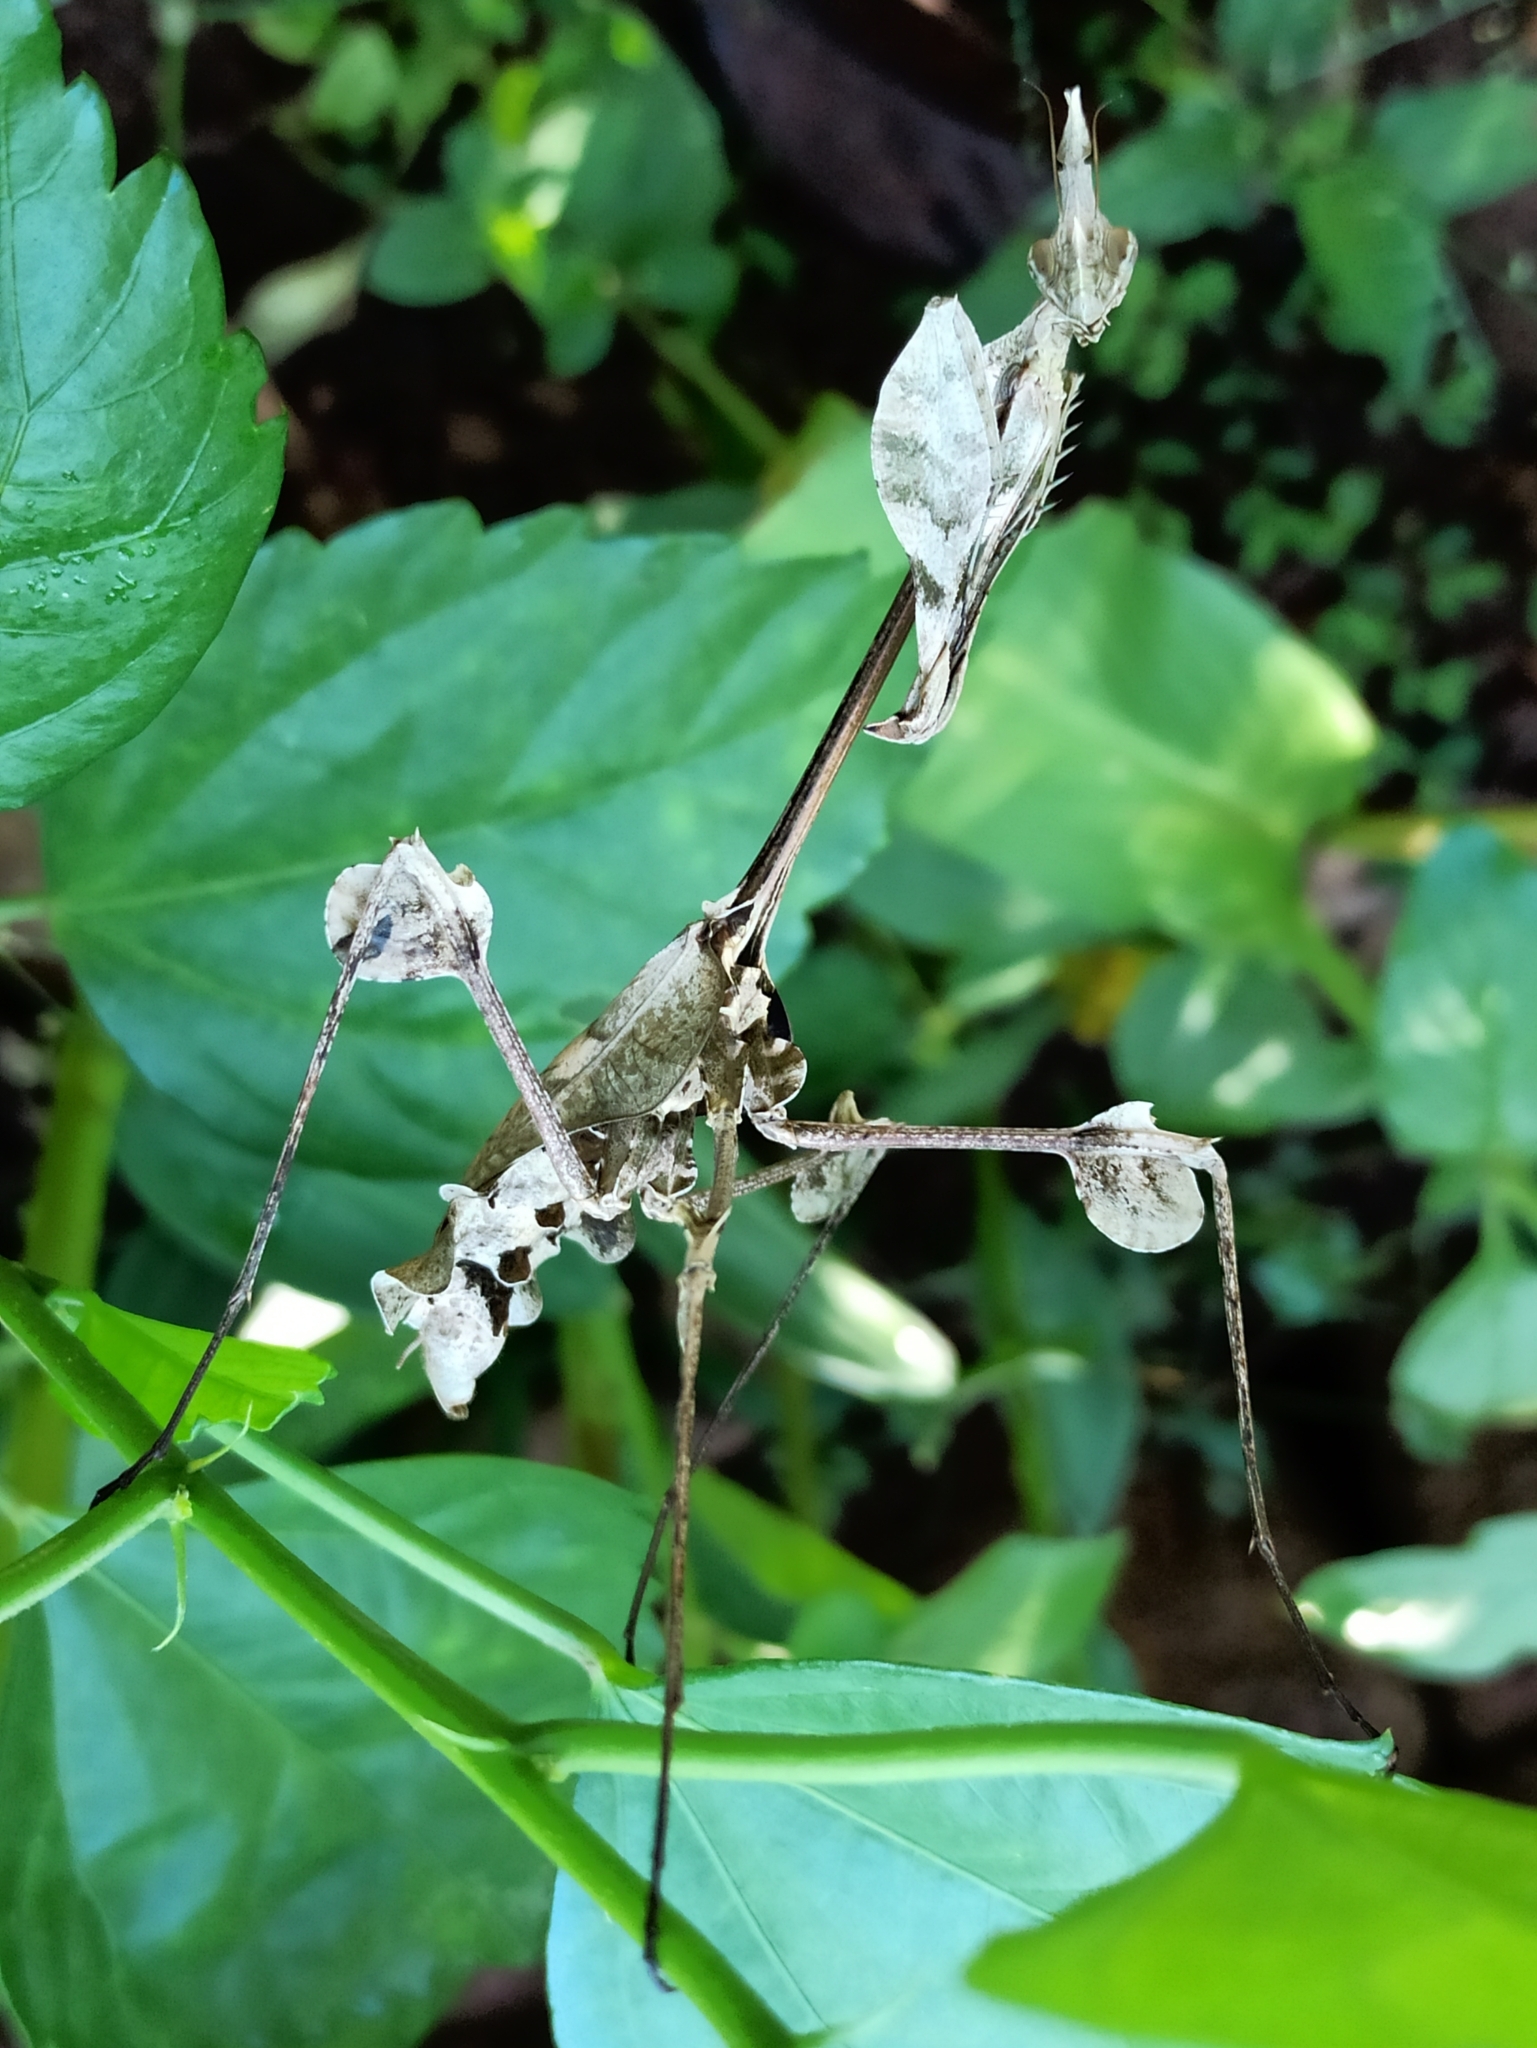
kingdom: Animalia
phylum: Arthropoda
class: Insecta
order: Mantodea
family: Empusidae
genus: Gongylus
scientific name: Gongylus gongylodes
